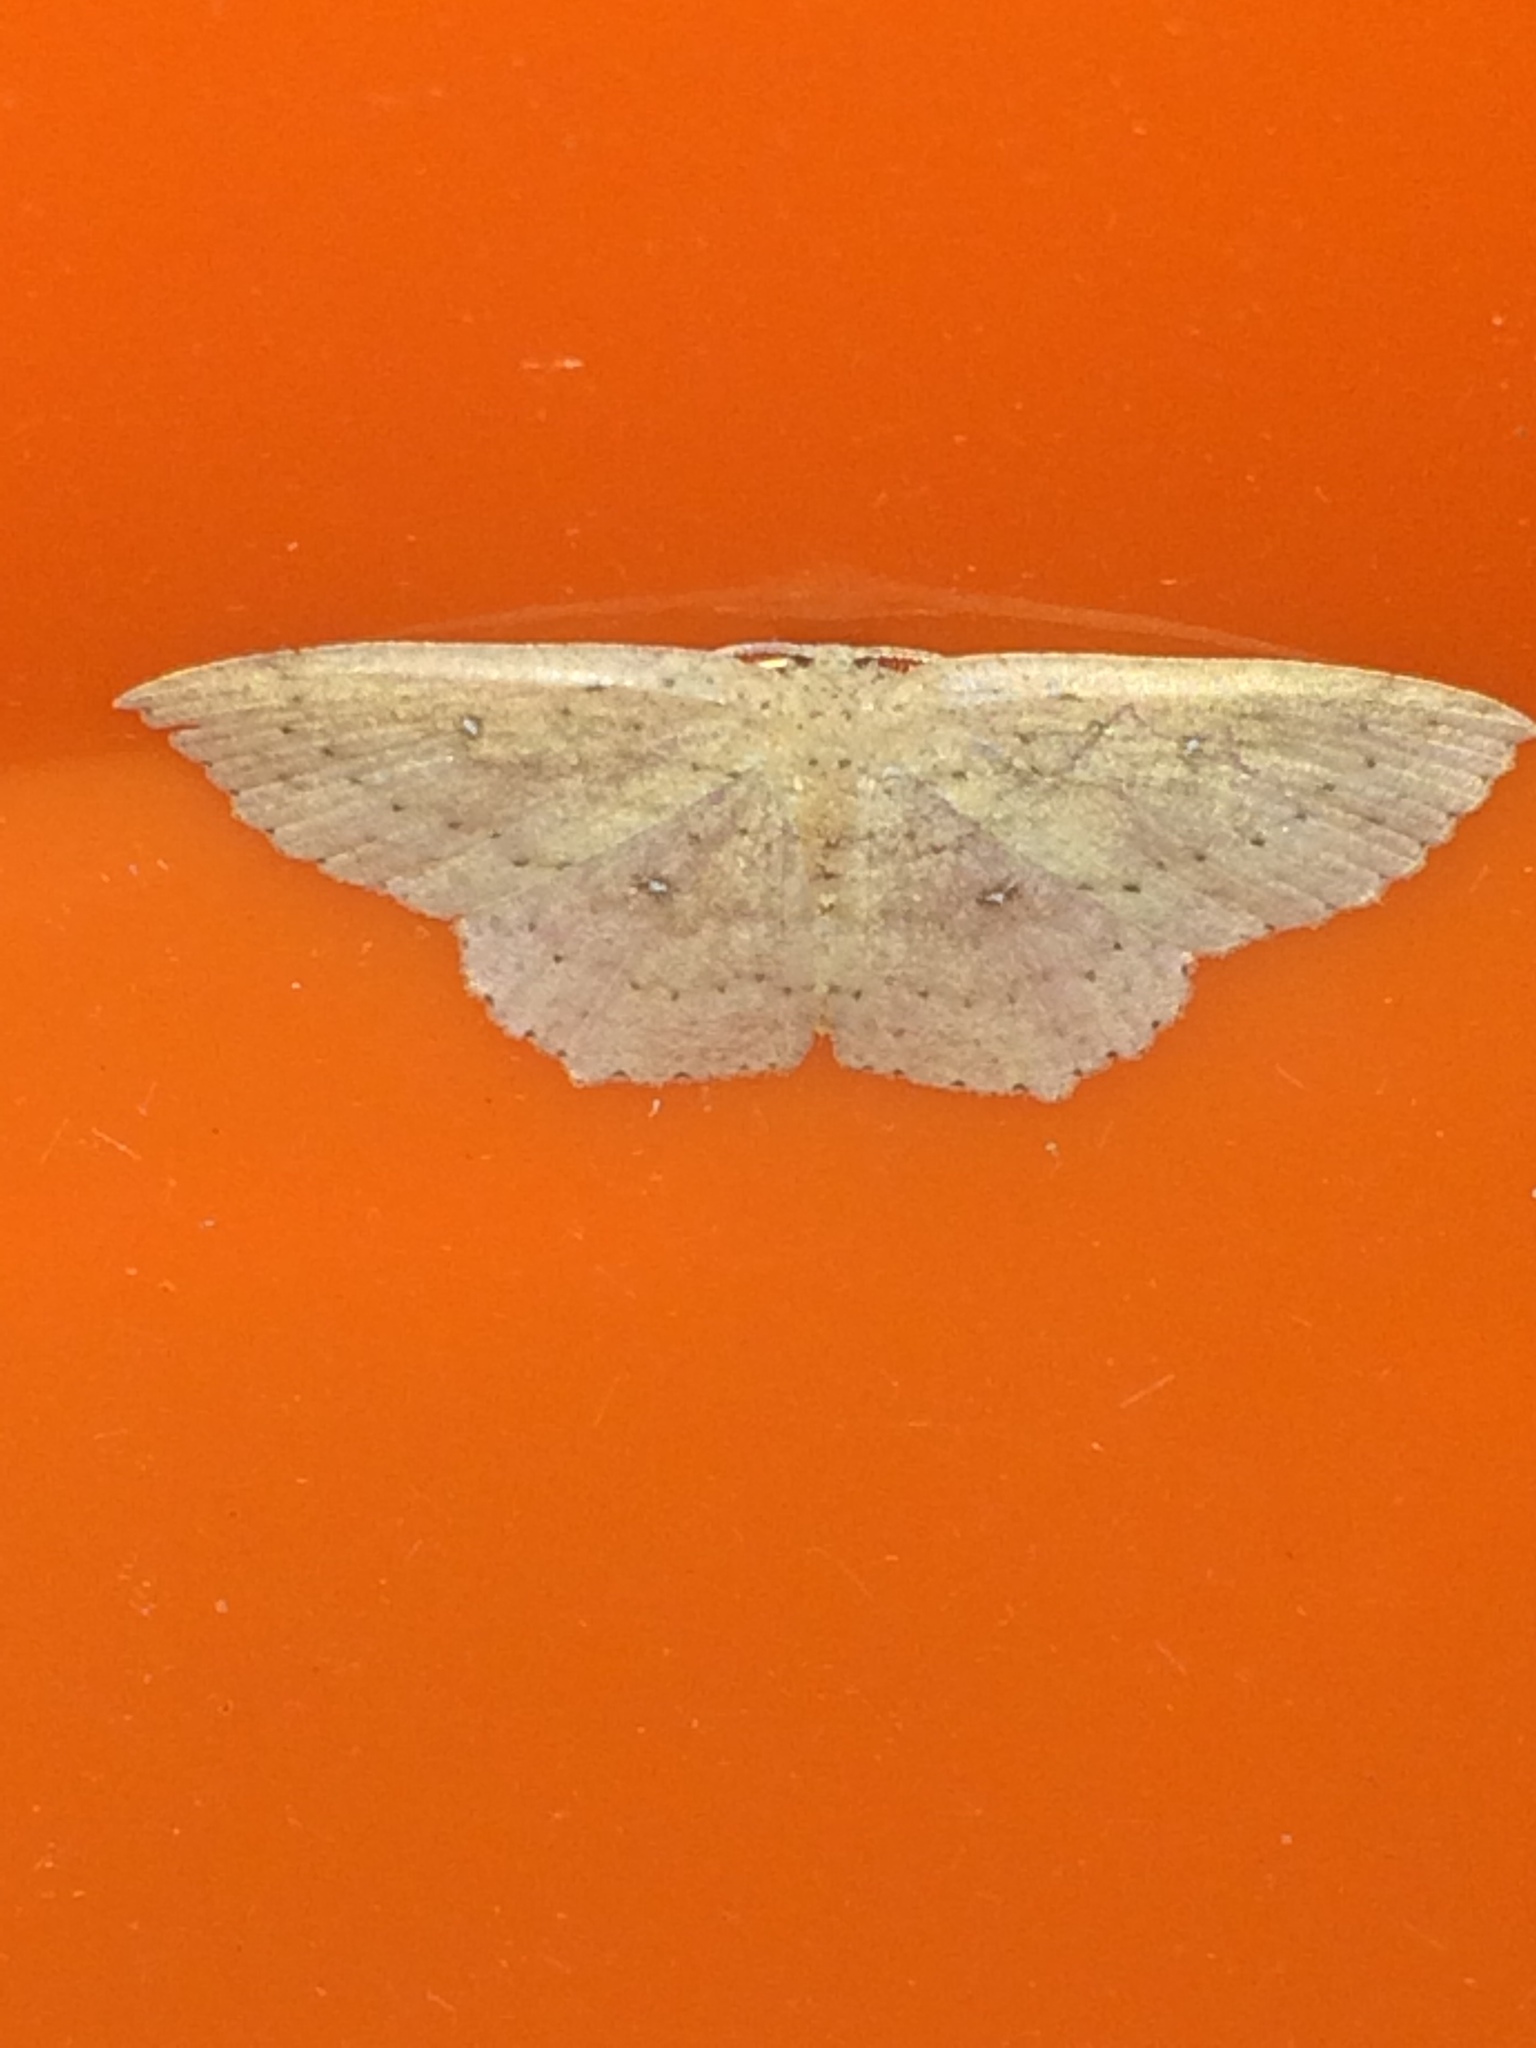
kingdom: Animalia
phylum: Arthropoda
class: Insecta
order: Lepidoptera
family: Geometridae
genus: Cyclophora
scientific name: Cyclophora myrtaria
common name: Waxmyrtle wave moth
